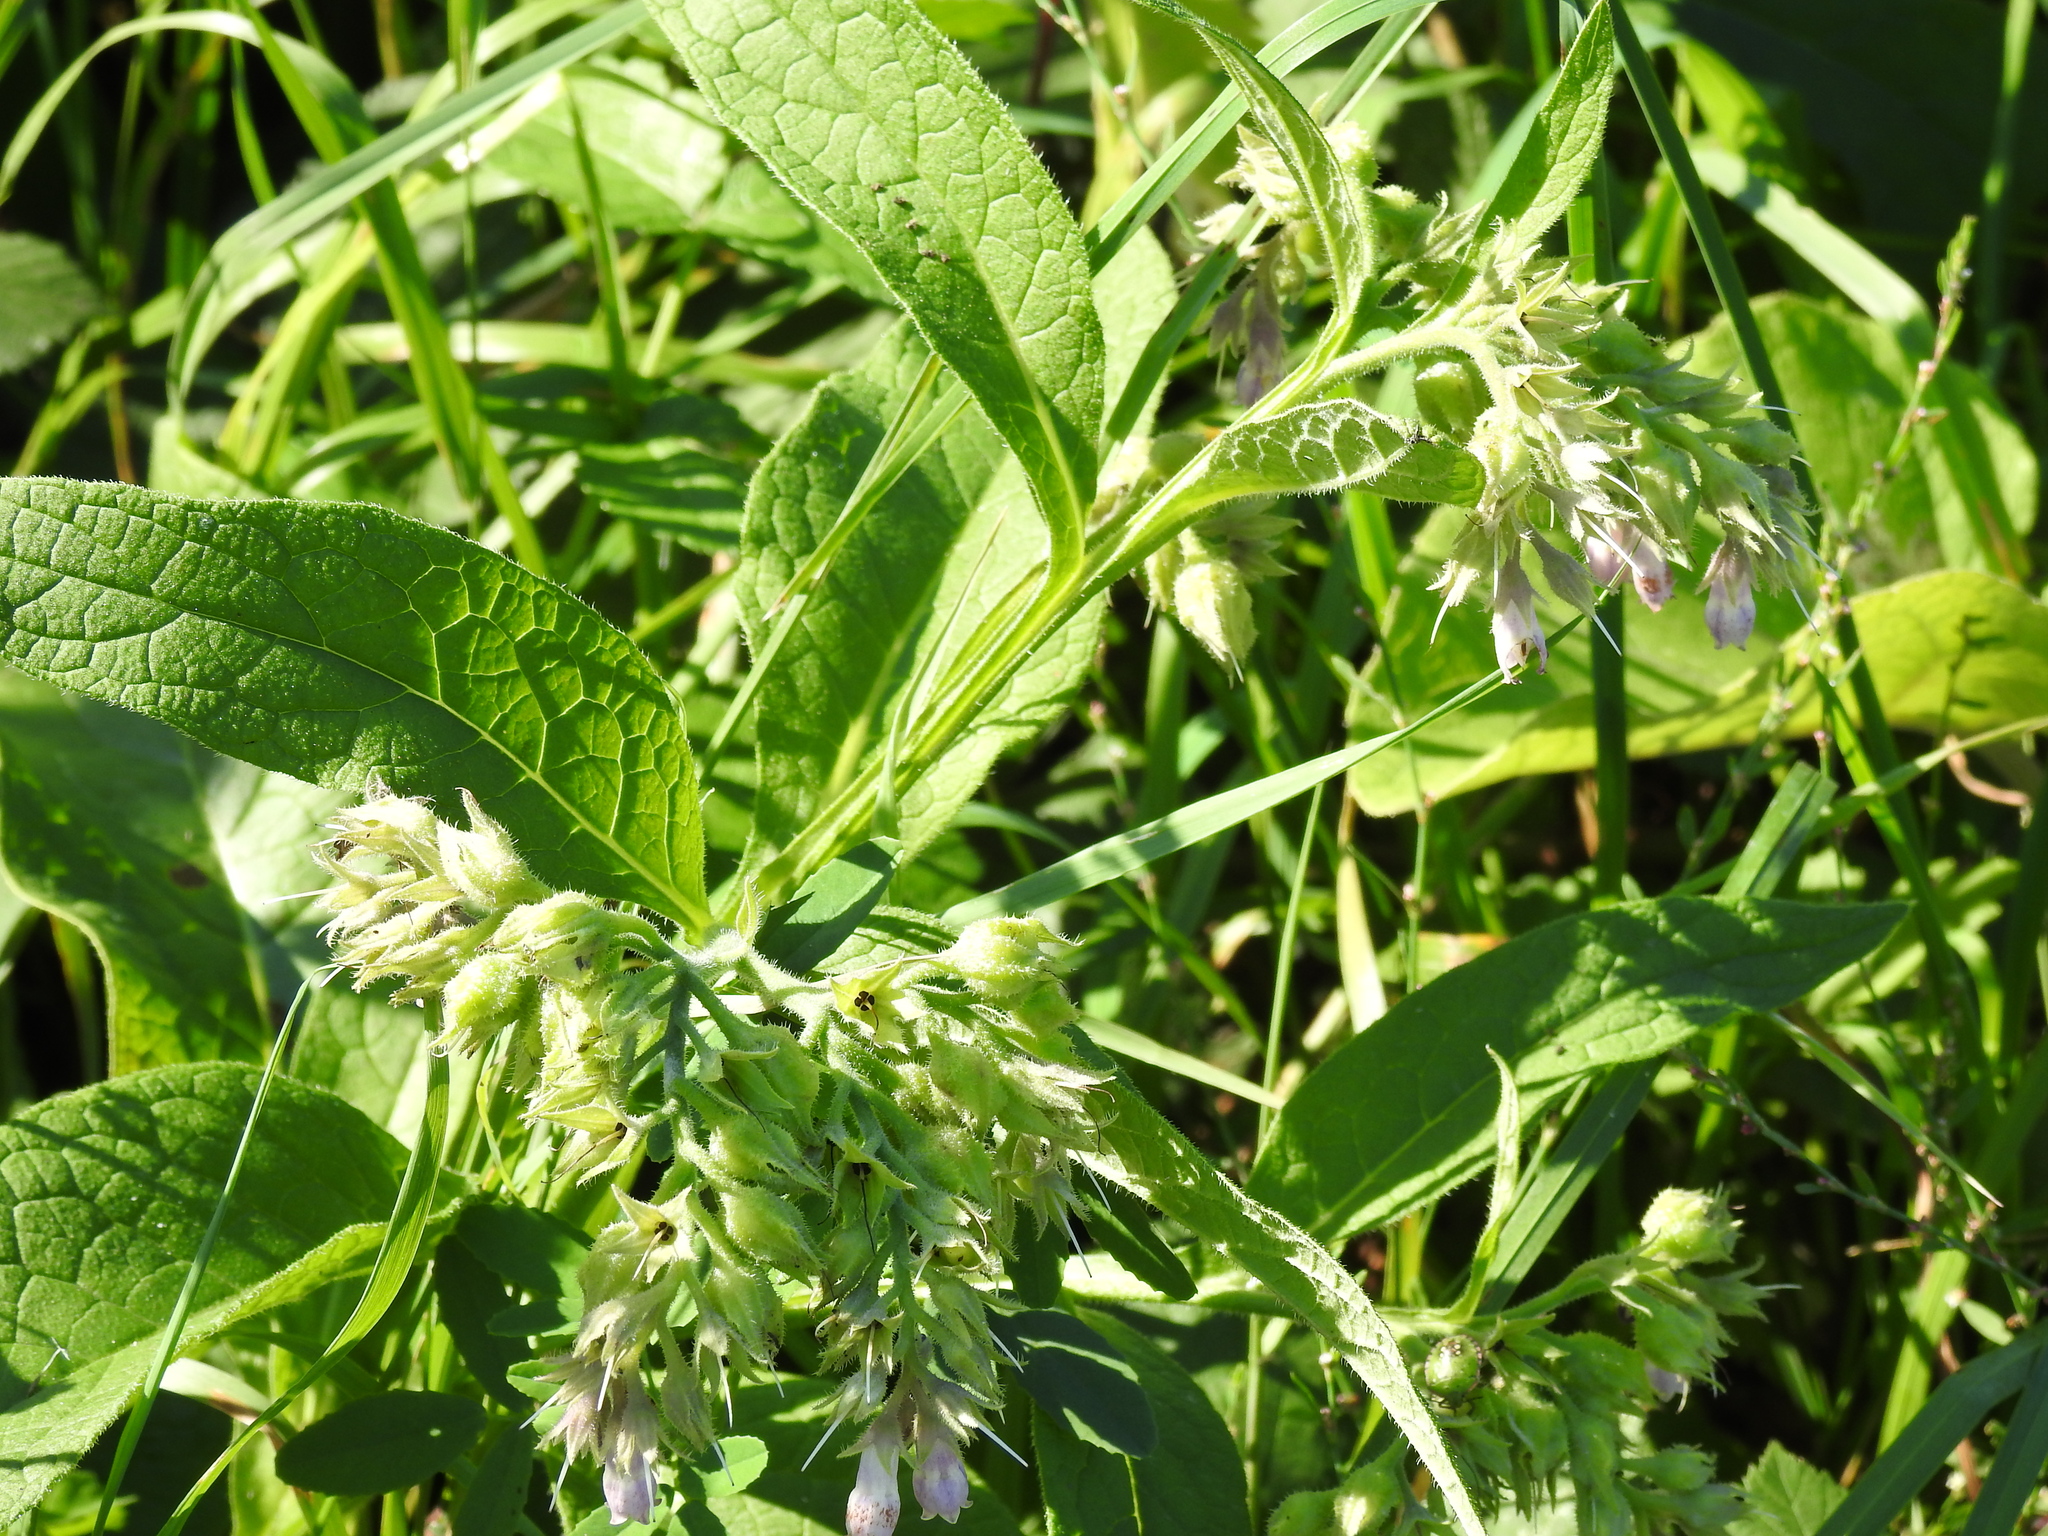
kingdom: Plantae
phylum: Tracheophyta
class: Magnoliopsida
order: Boraginales
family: Boraginaceae
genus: Symphytum
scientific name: Symphytum officinale
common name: Common comfrey
